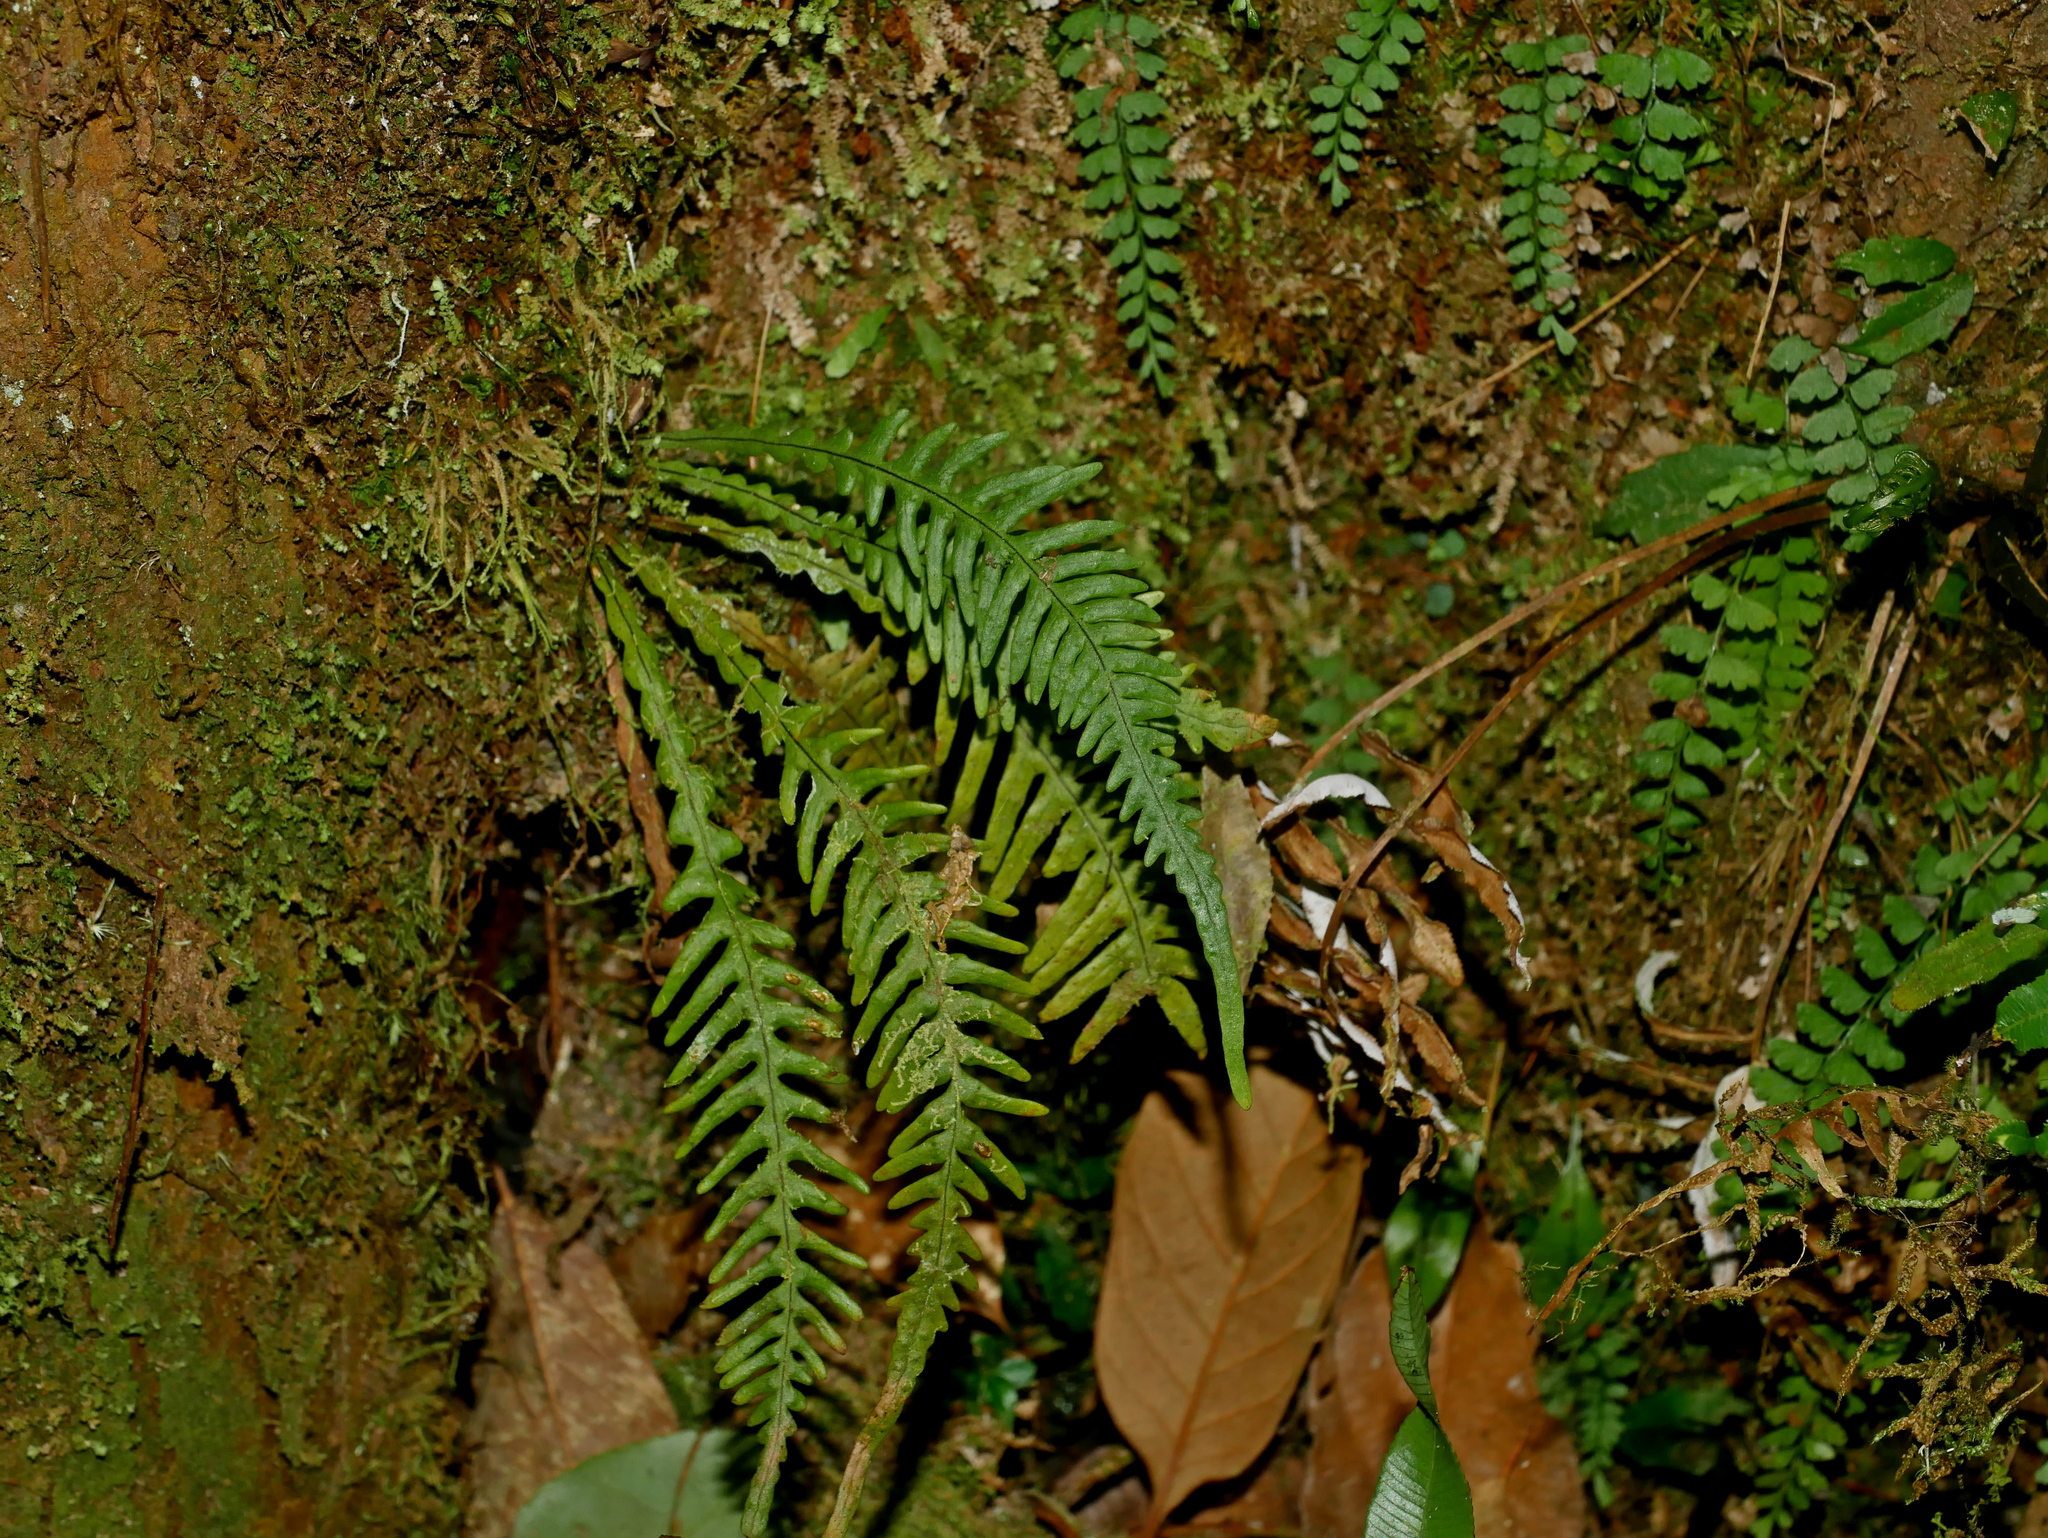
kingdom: Plantae
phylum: Tracheophyta
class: Polypodiopsida
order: Polypodiales
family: Polypodiaceae
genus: Oreogrammitis
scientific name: Oreogrammitis curtisii
